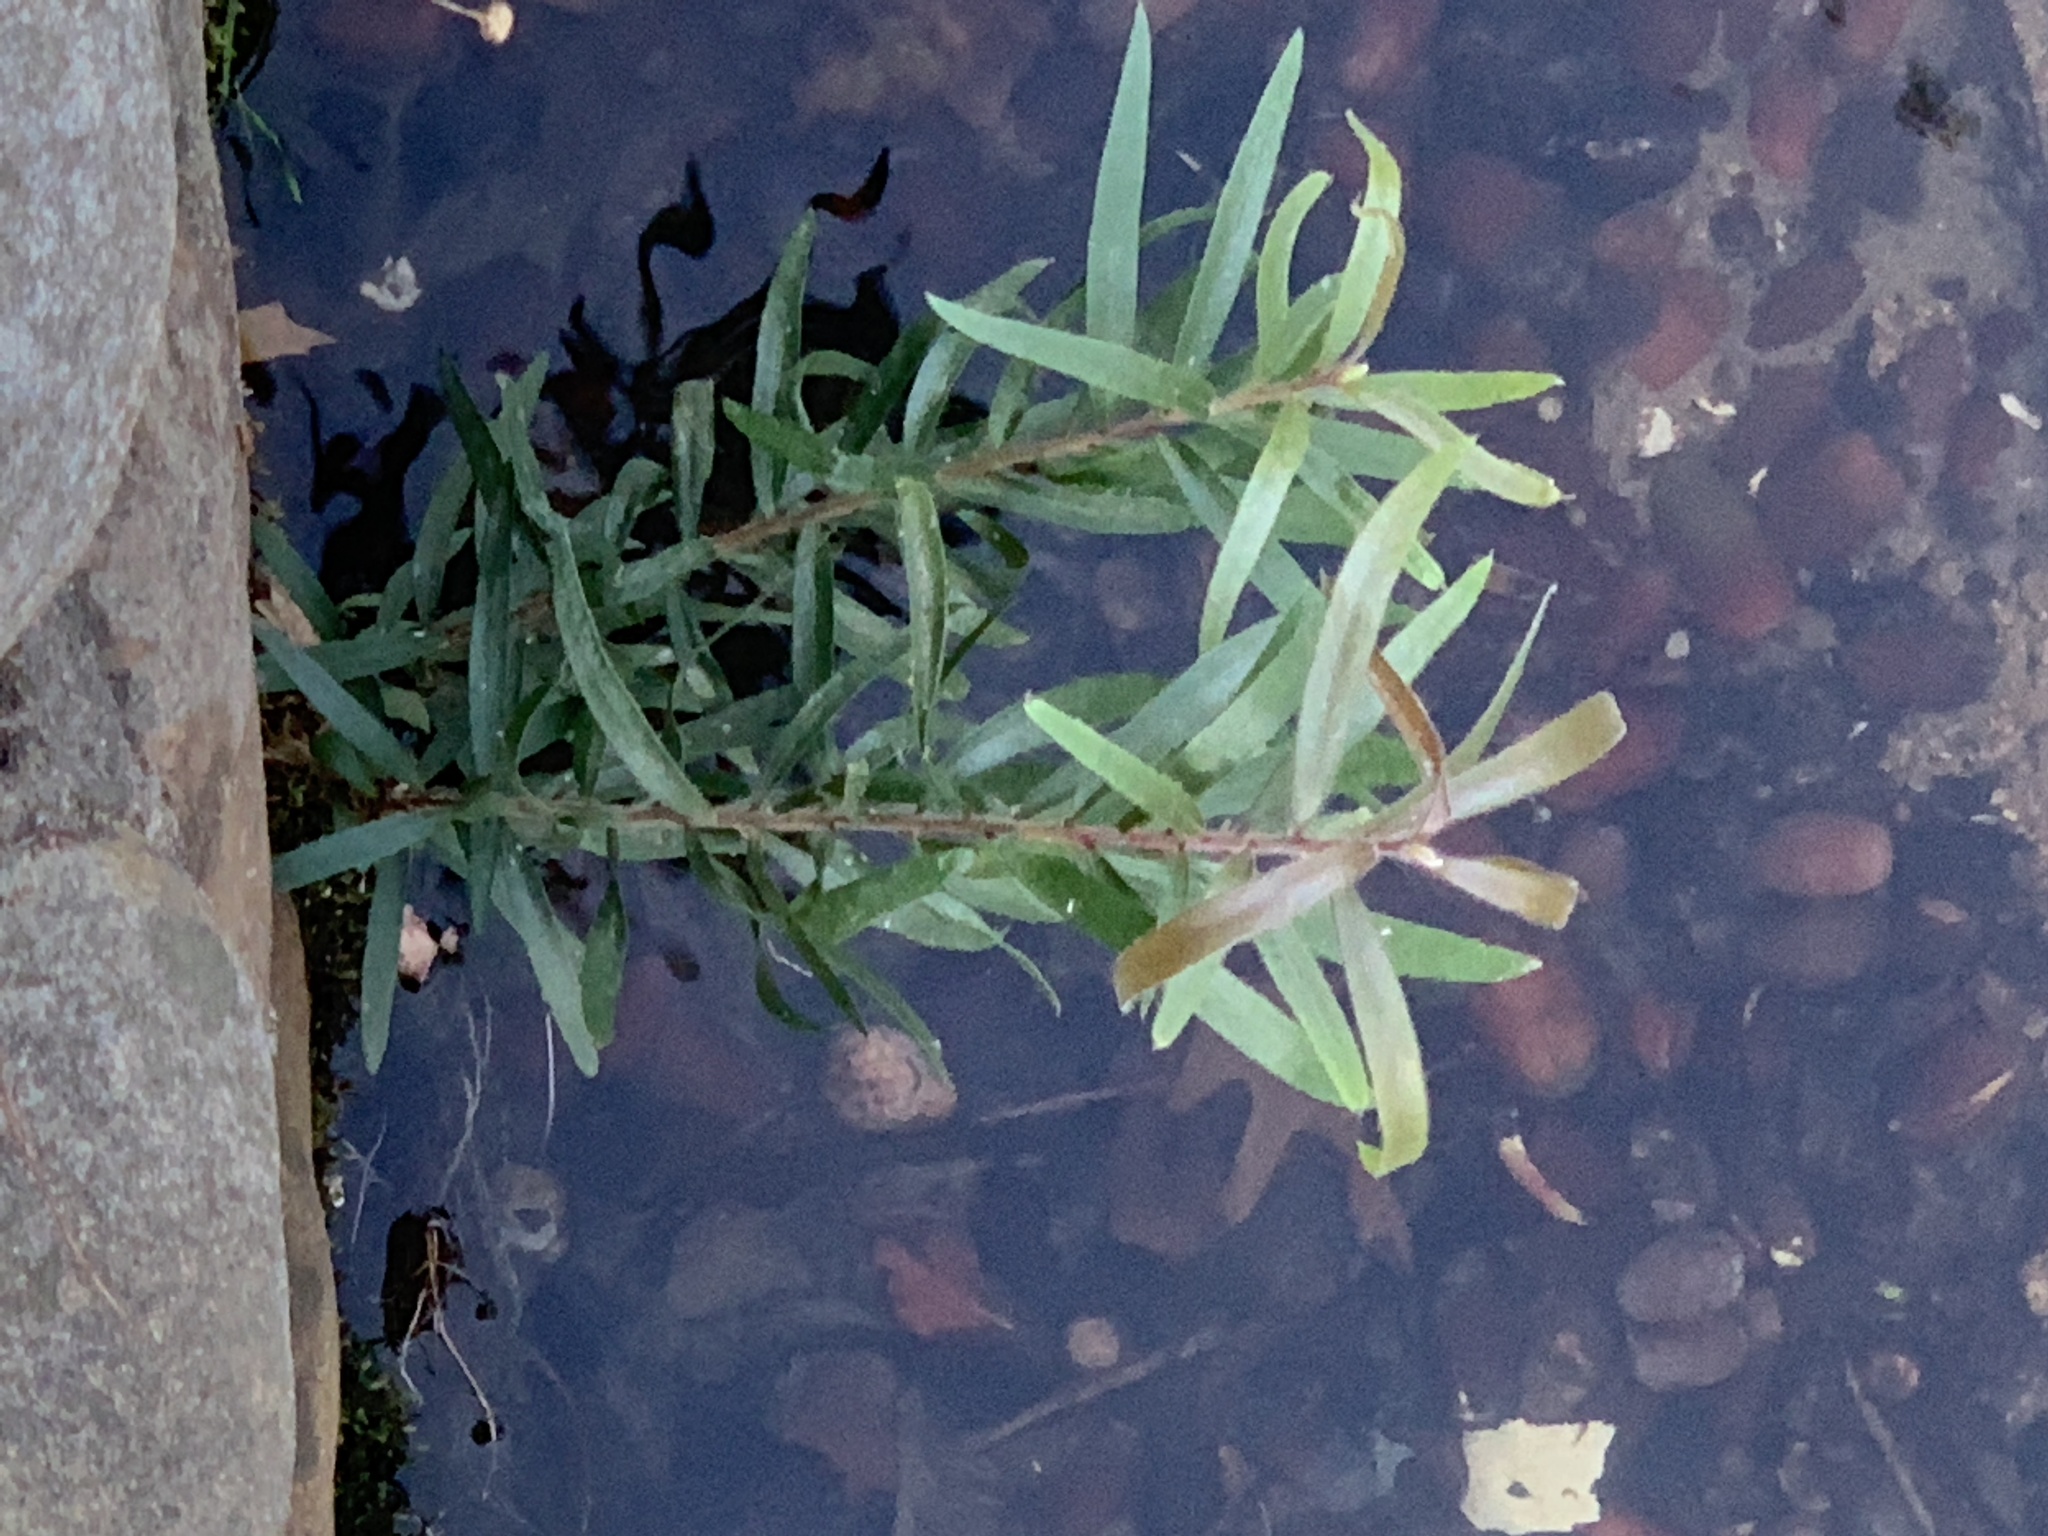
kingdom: Plantae
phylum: Tracheophyta
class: Magnoliopsida
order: Myrtales
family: Myrtaceae
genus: Callistemon
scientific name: Callistemon viminalis
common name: Drooping bottlebrush
